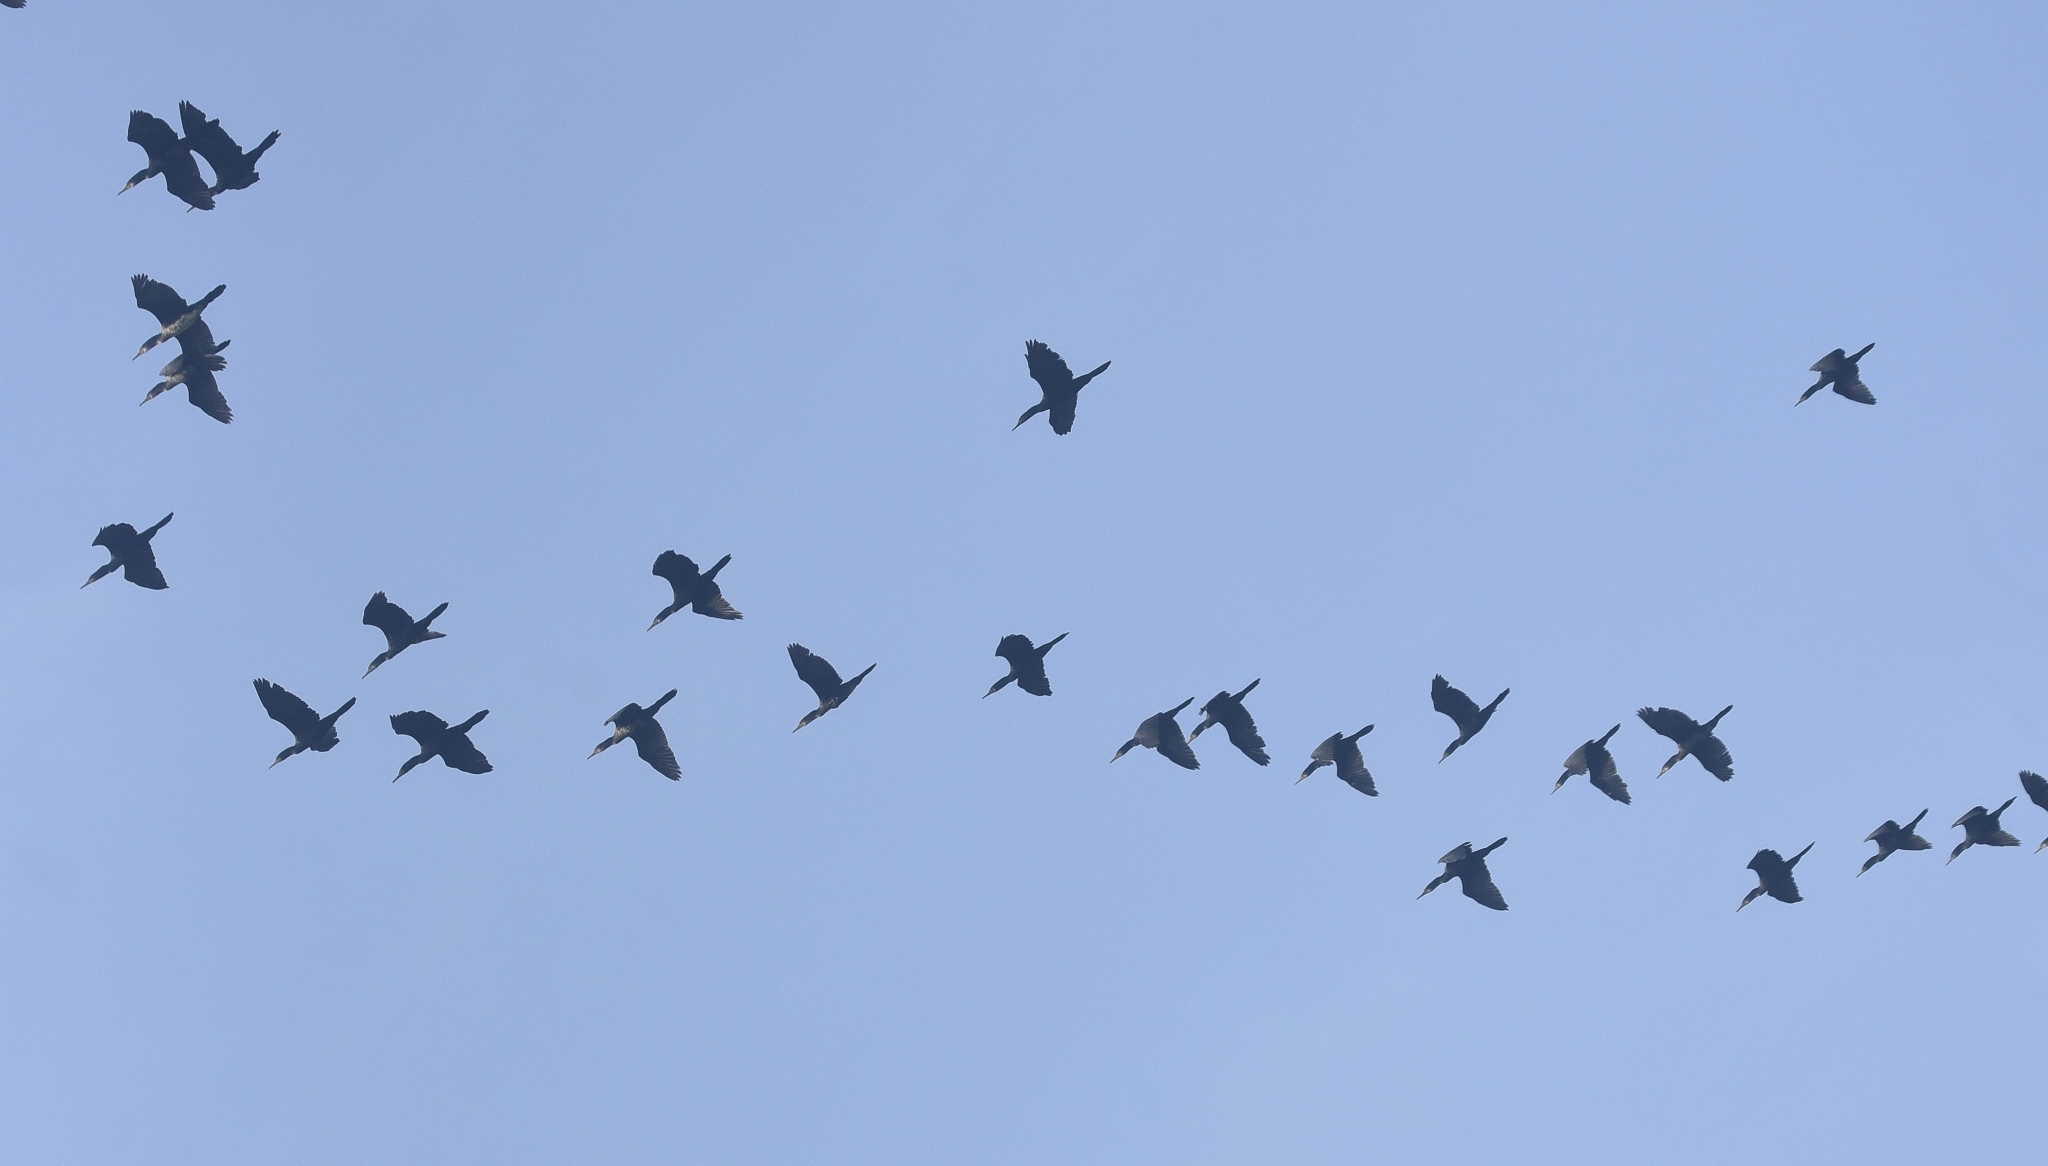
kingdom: Animalia
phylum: Chordata
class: Aves
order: Suliformes
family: Phalacrocoracidae
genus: Phalacrocorax
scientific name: Phalacrocorax fuscicollis
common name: Indian cormorant
